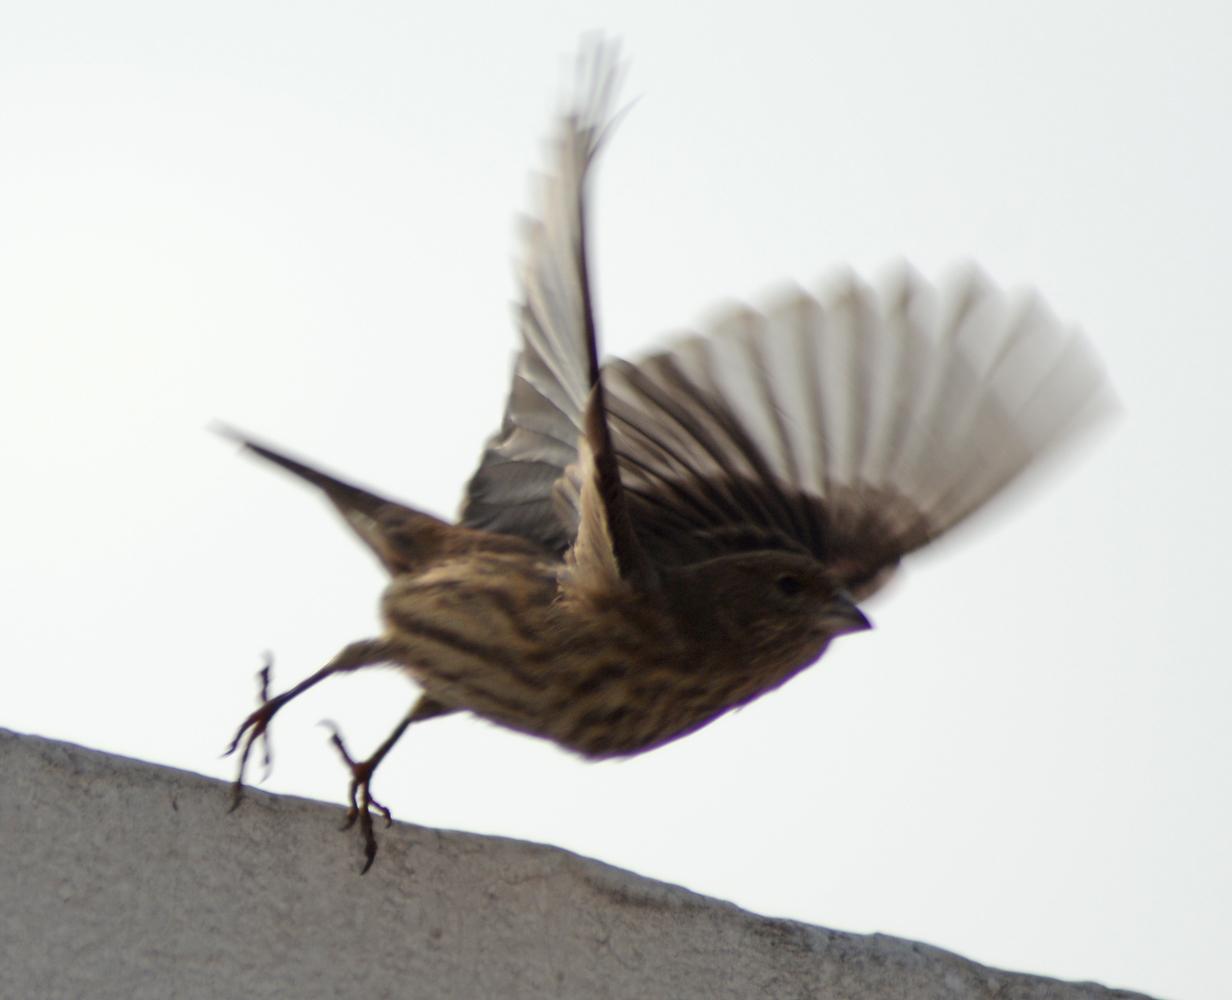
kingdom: Animalia
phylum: Chordata
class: Aves
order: Passeriformes
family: Fringillidae
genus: Haemorhous
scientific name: Haemorhous mexicanus
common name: House finch
